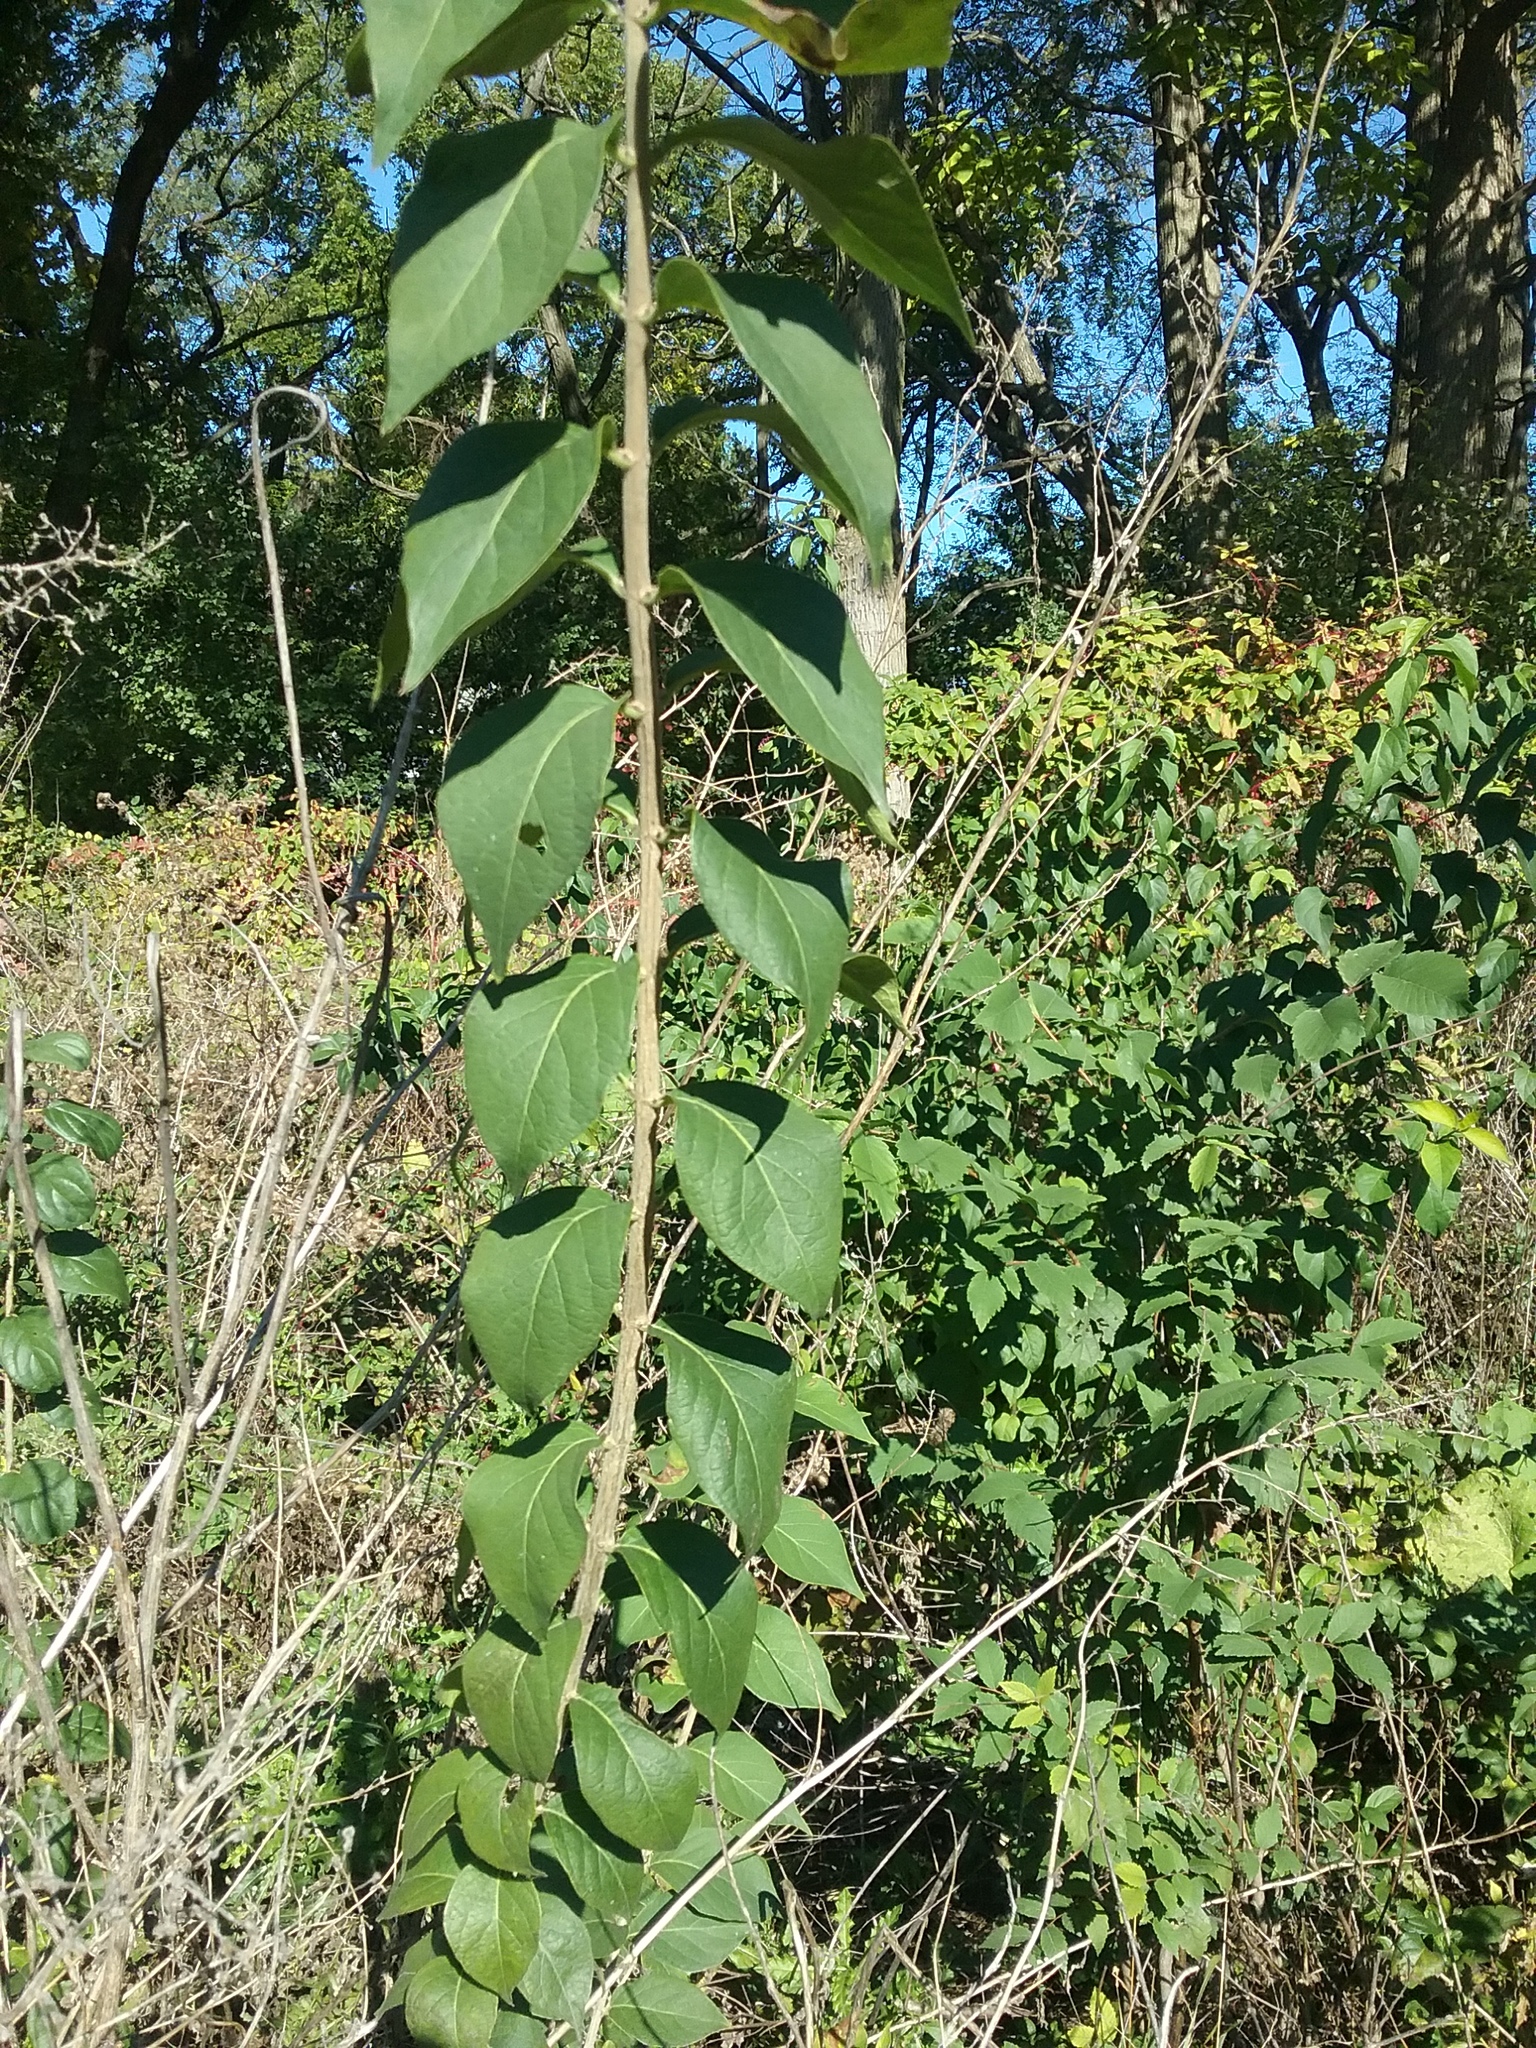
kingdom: Plantae
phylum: Tracheophyta
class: Magnoliopsida
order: Dipsacales
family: Caprifoliaceae
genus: Lonicera
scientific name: Lonicera maackii
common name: Amur honeysuckle
